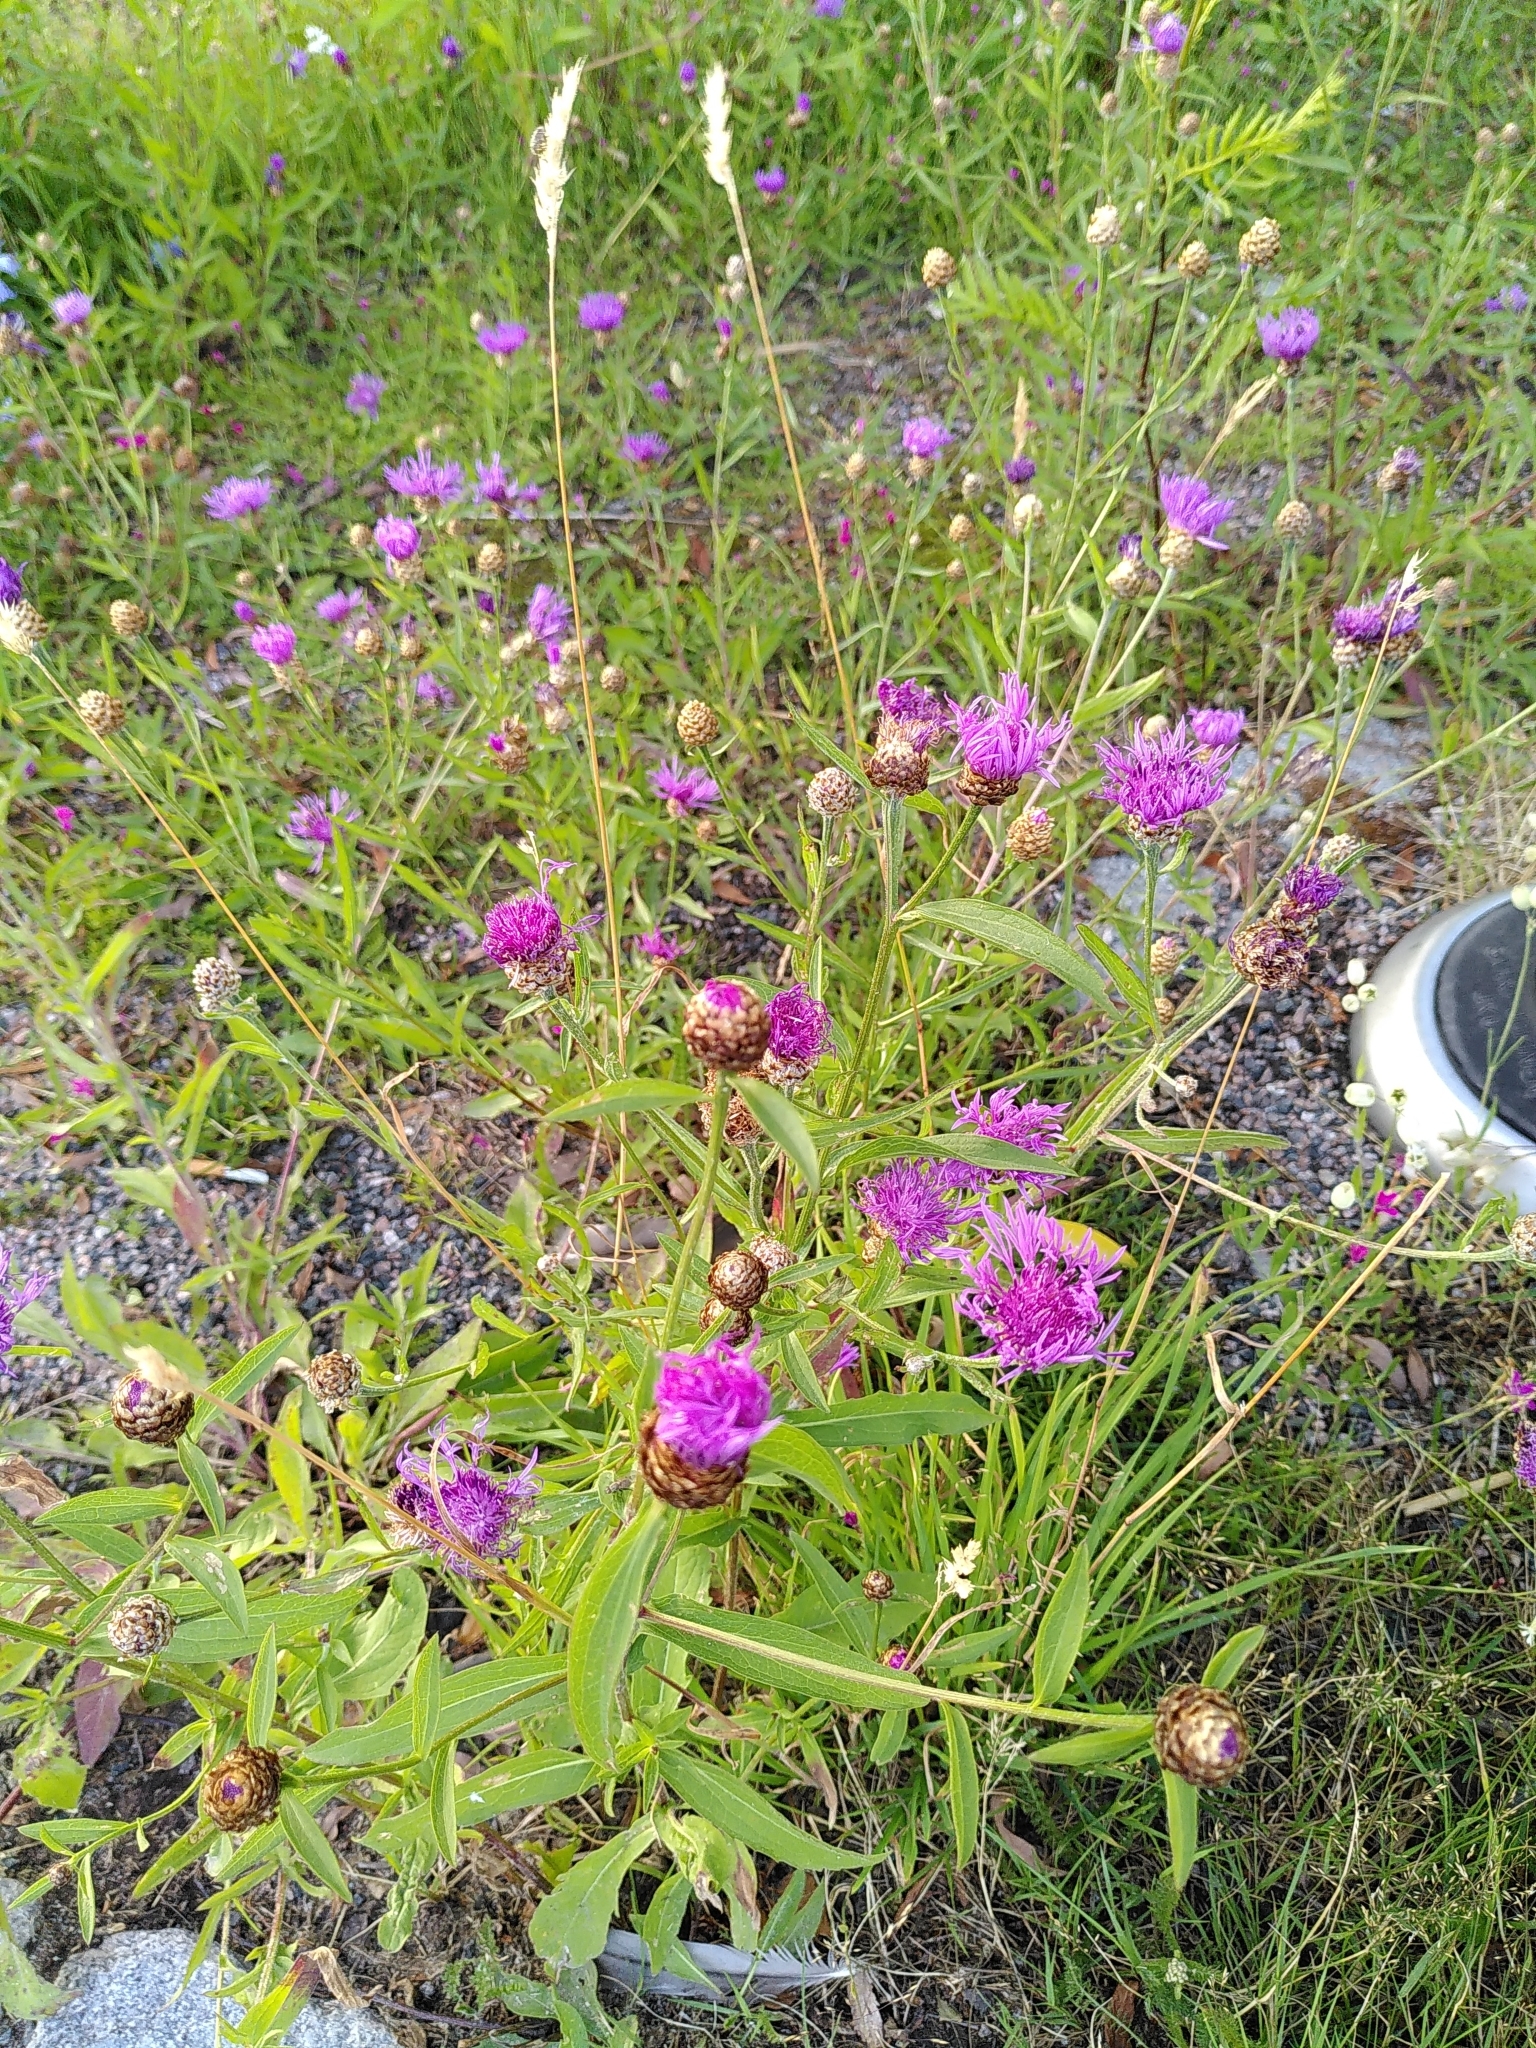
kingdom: Plantae
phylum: Tracheophyta
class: Magnoliopsida
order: Asterales
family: Asteraceae
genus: Centaurea
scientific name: Centaurea jacea
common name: Brown knapweed
